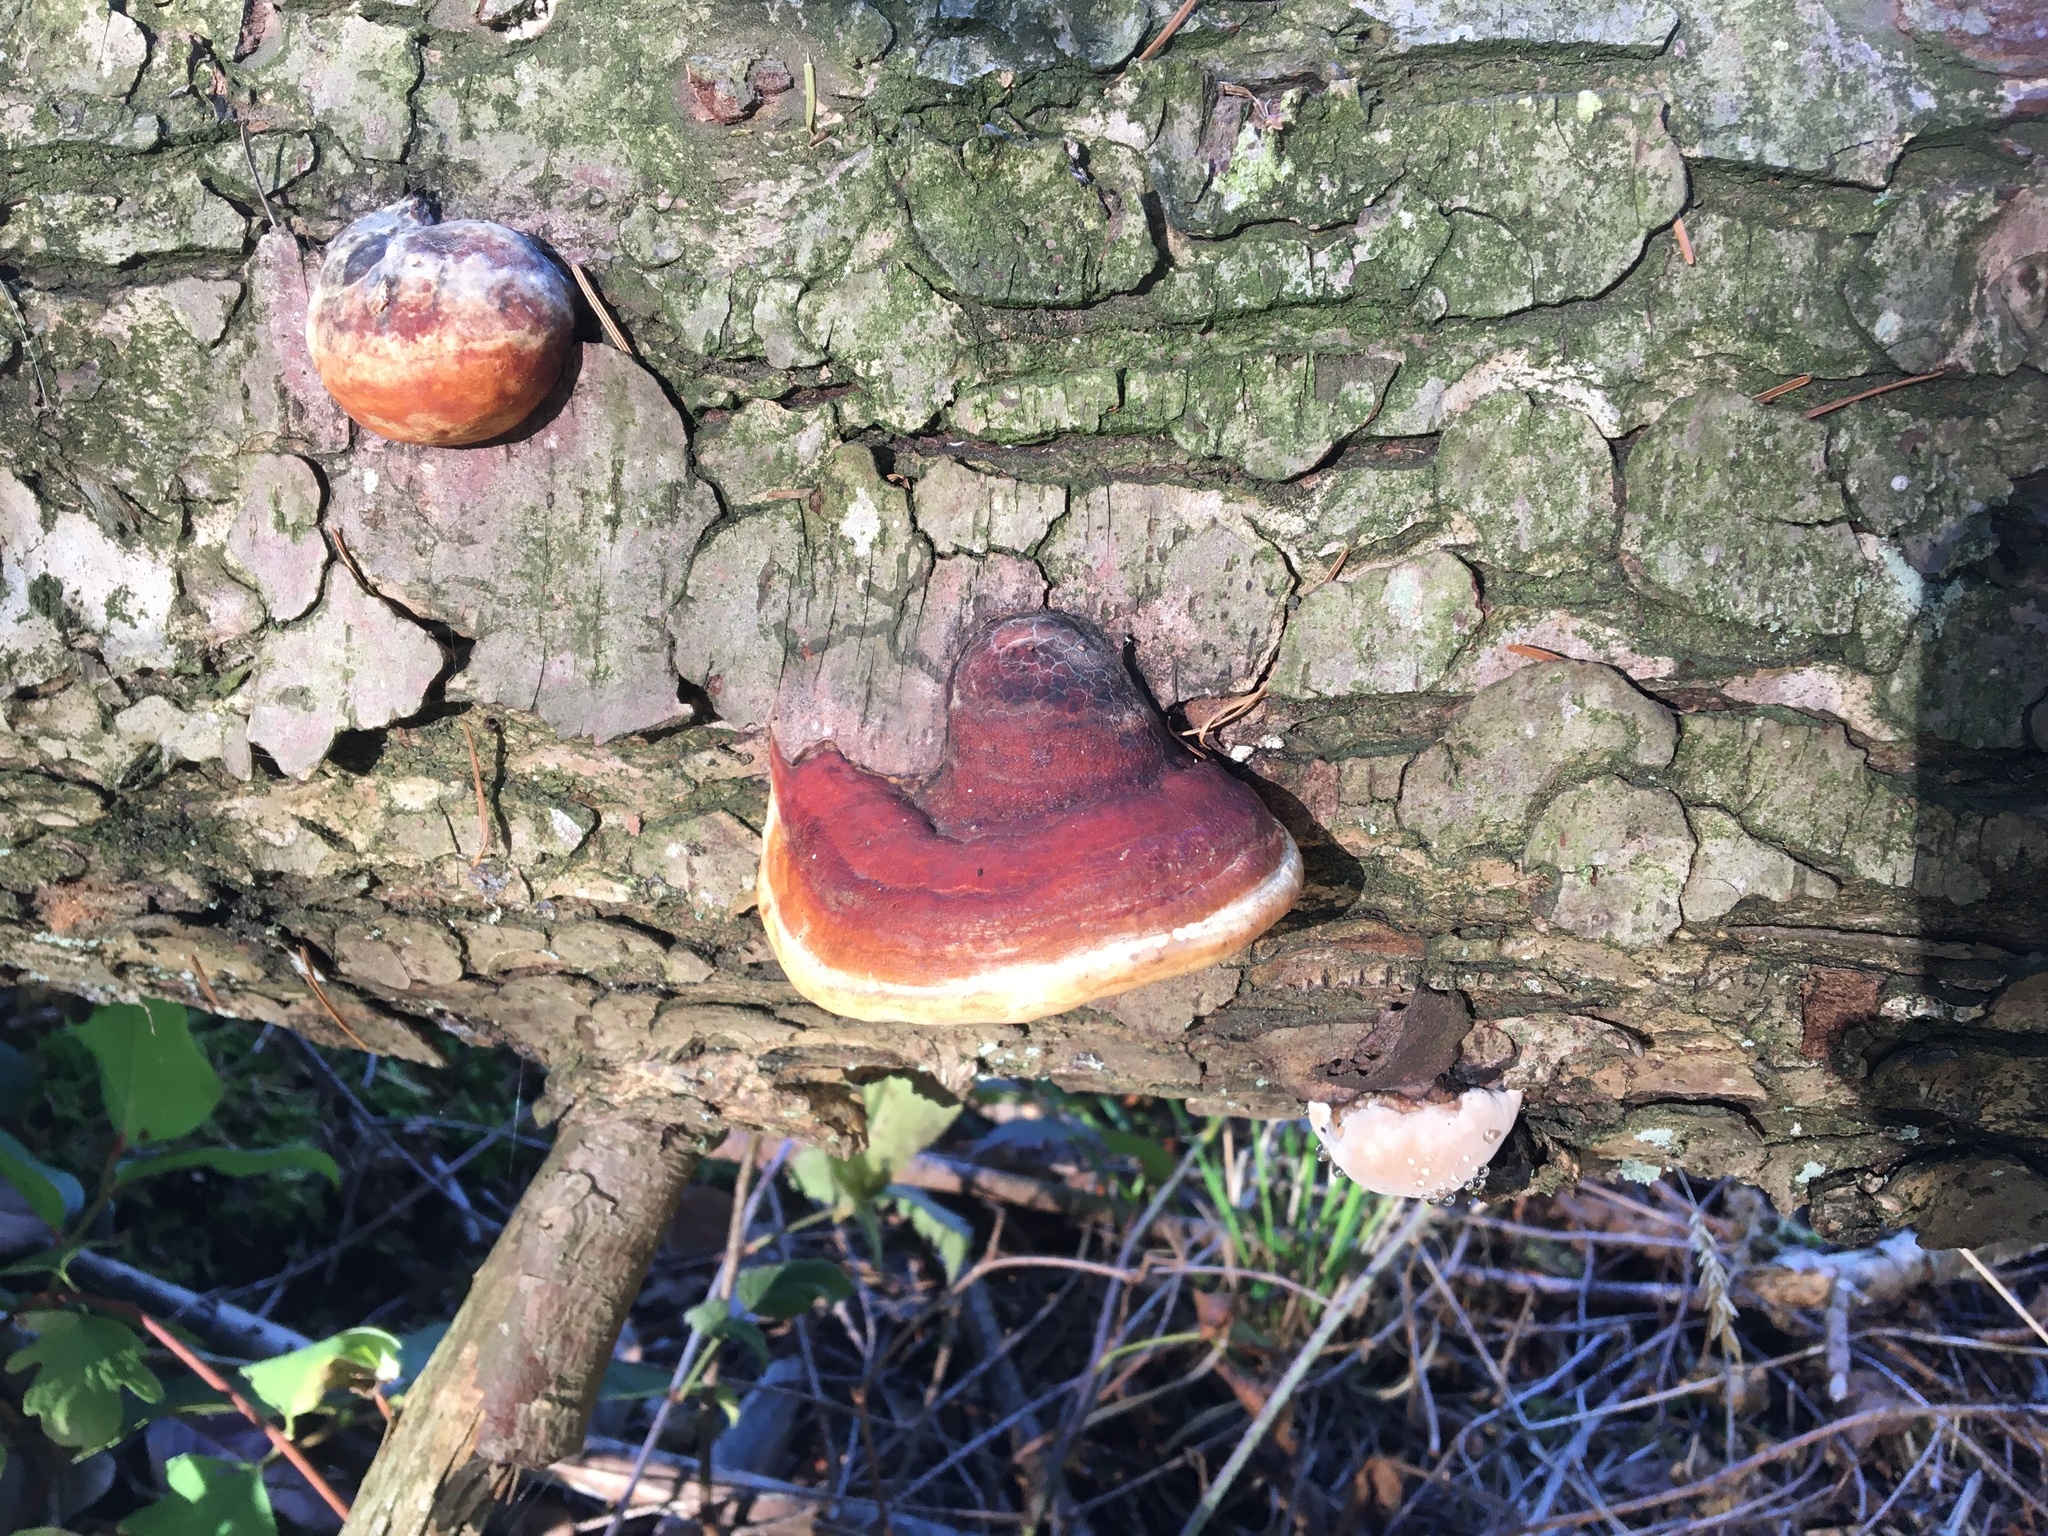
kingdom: Fungi
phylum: Basidiomycota
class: Agaricomycetes
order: Polyporales
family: Fomitopsidaceae
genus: Fomitopsis
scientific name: Fomitopsis mounceae
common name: Northern red belt
